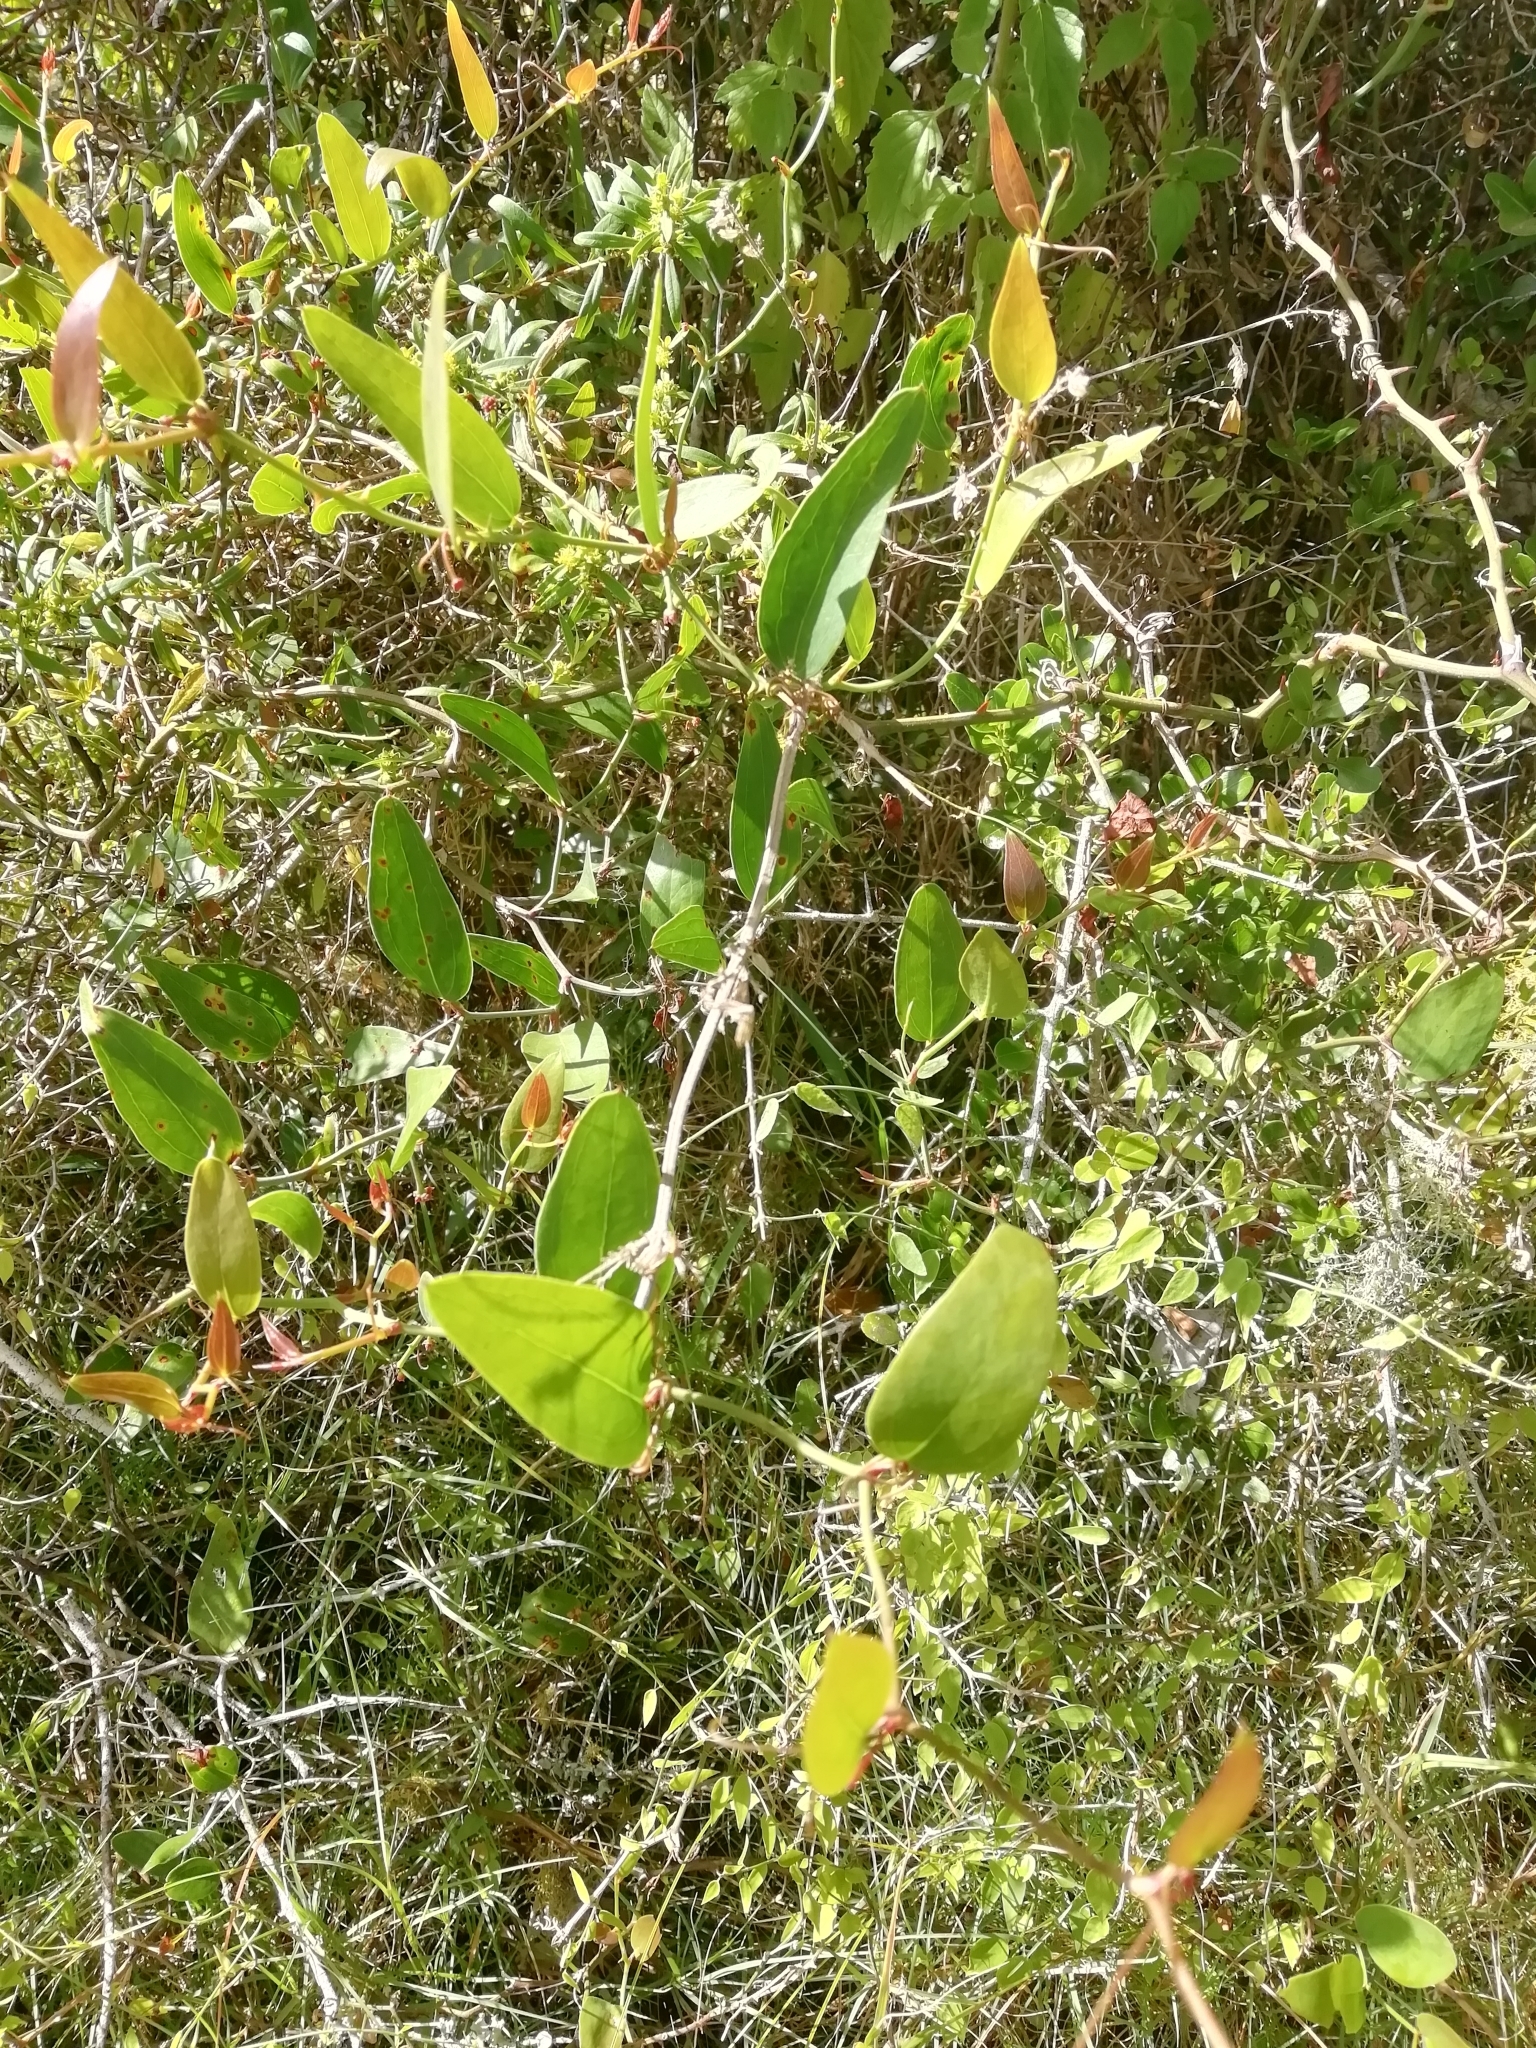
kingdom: Plantae
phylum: Tracheophyta
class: Liliopsida
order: Liliales
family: Smilacaceae
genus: Smilax
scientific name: Smilax campestris
